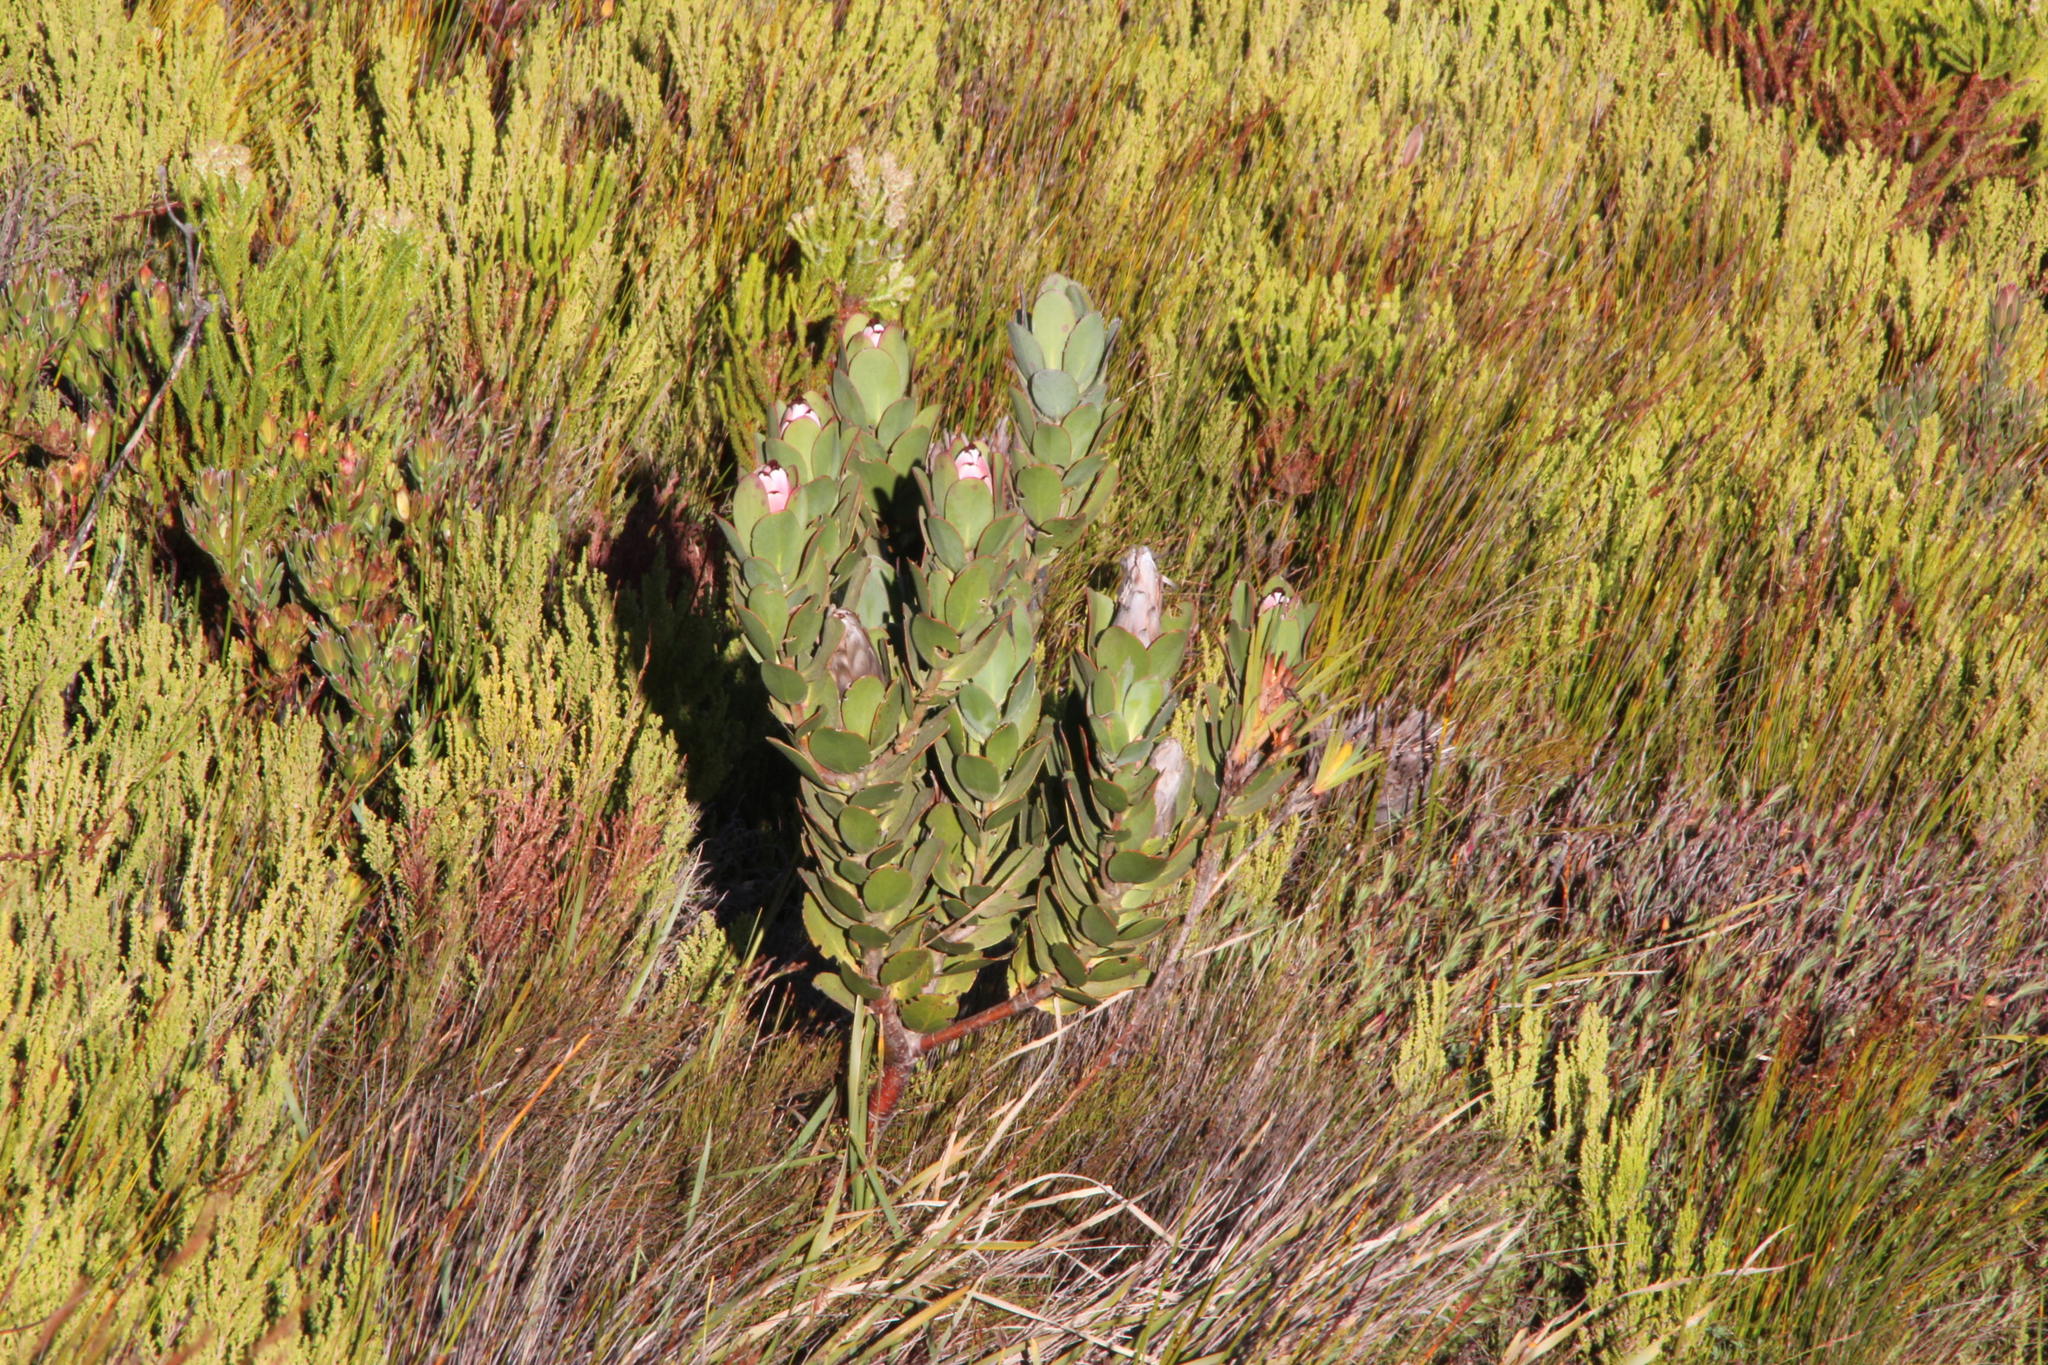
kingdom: Plantae
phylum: Tracheophyta
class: Magnoliopsida
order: Proteales
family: Proteaceae
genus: Protea
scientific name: Protea stokoei
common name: Pink sugarbush
